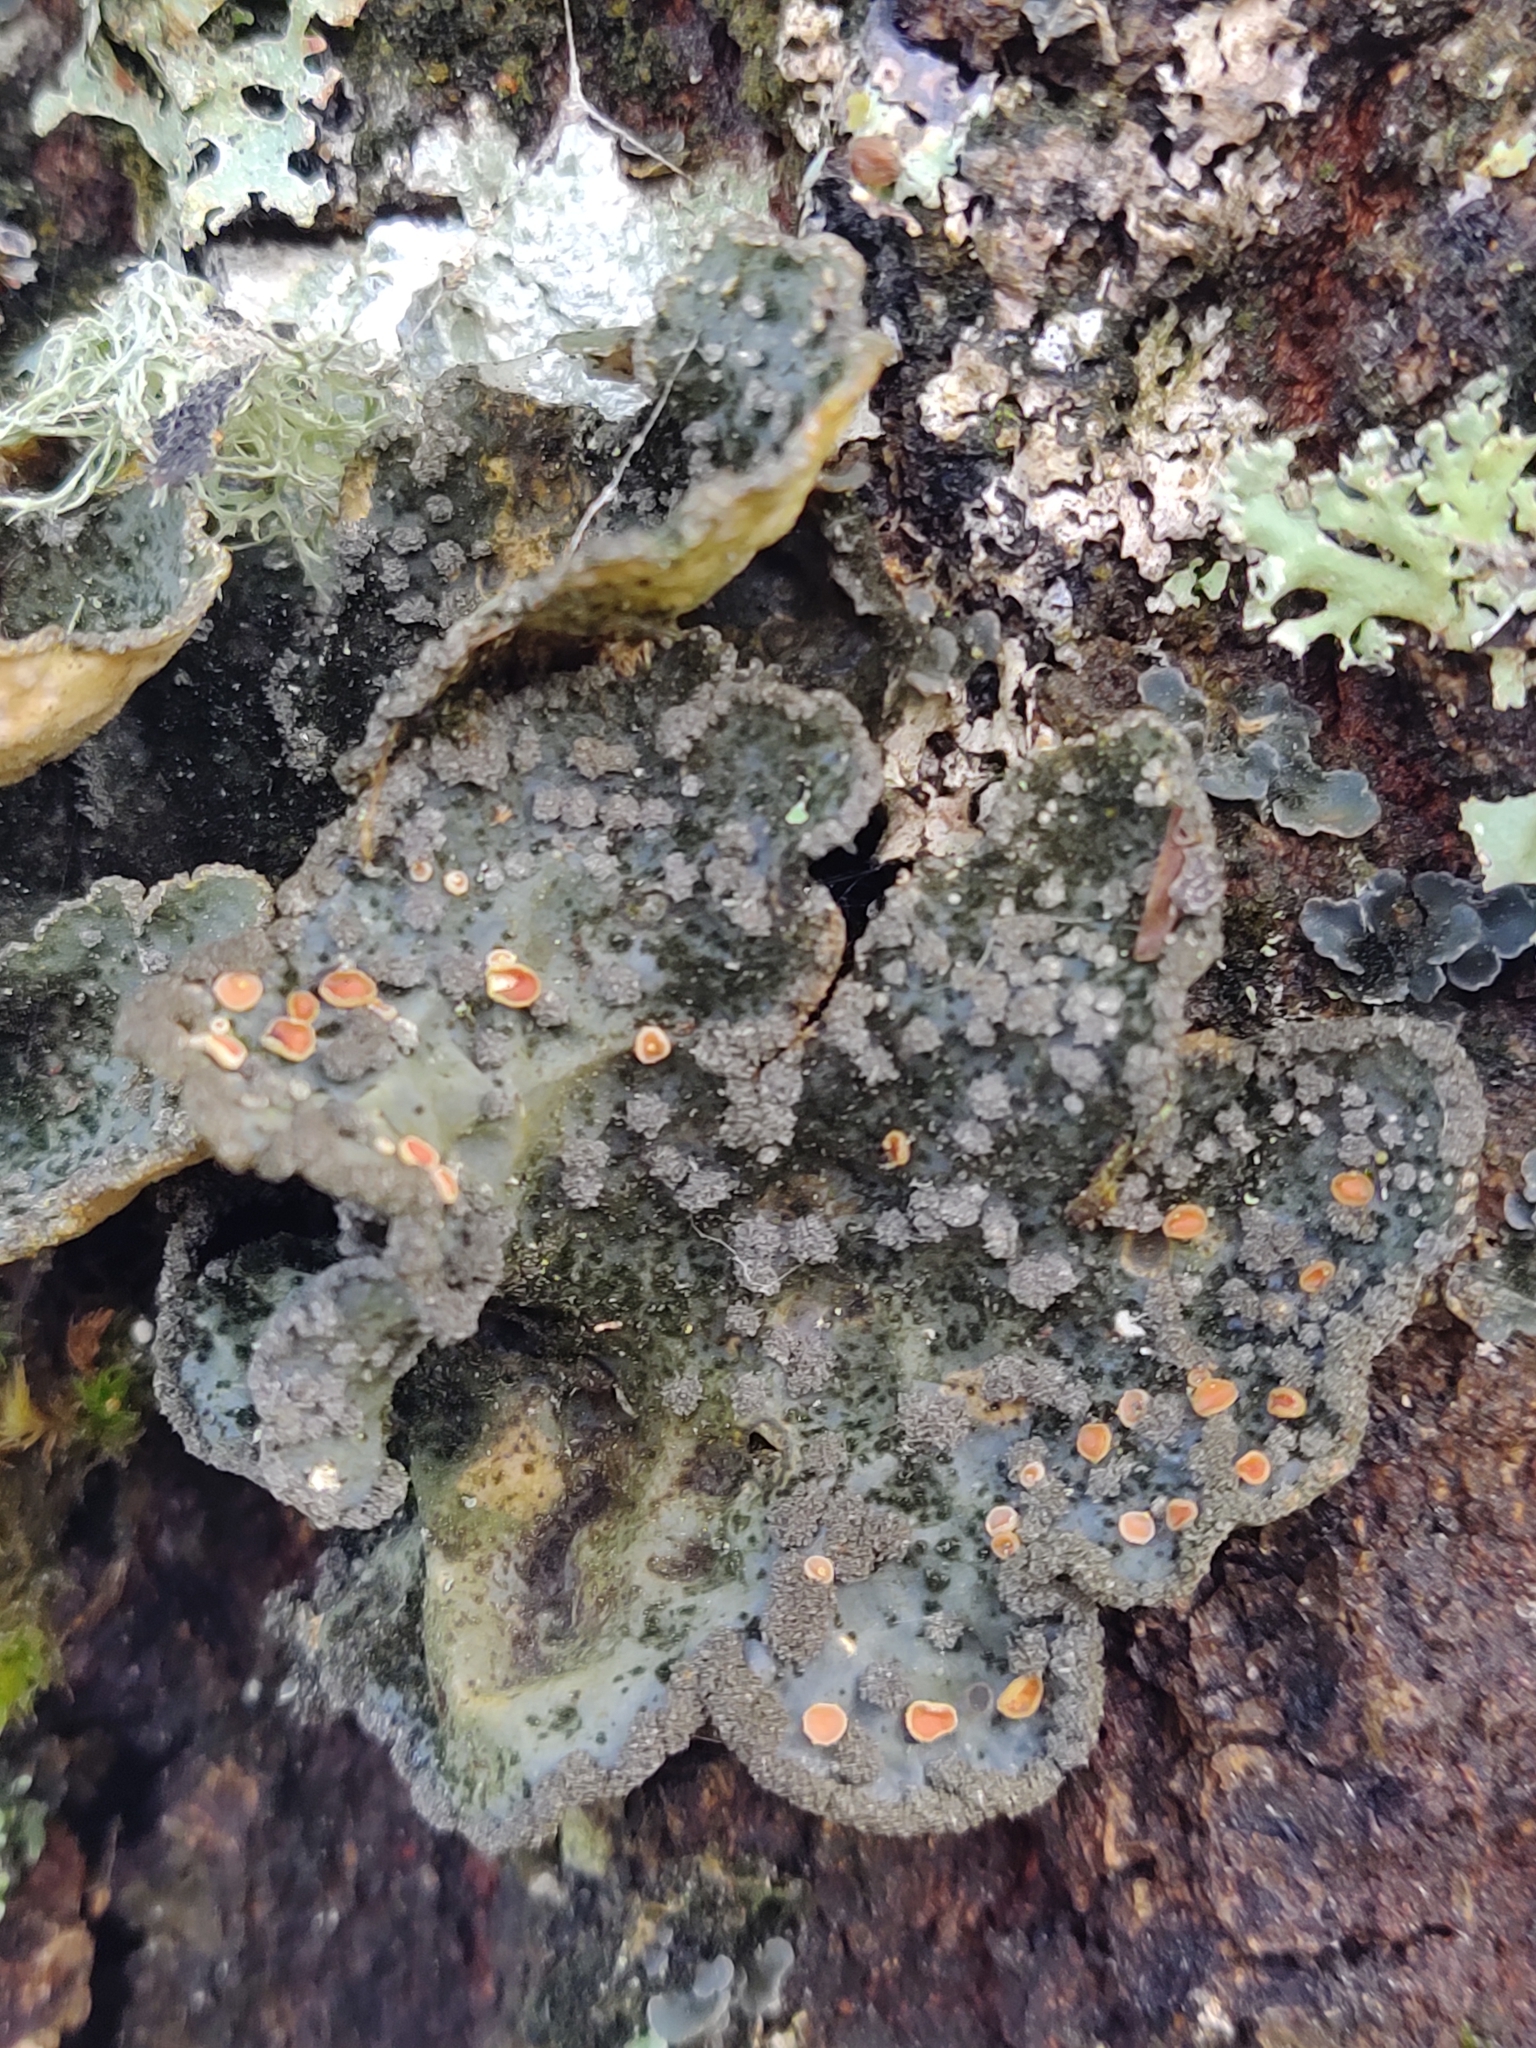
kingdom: Fungi
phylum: Ascomycota
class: Lecanoromycetes
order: Peltigerales
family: Lobariaceae
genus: Lobarina
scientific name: Lobarina scrobiculata
